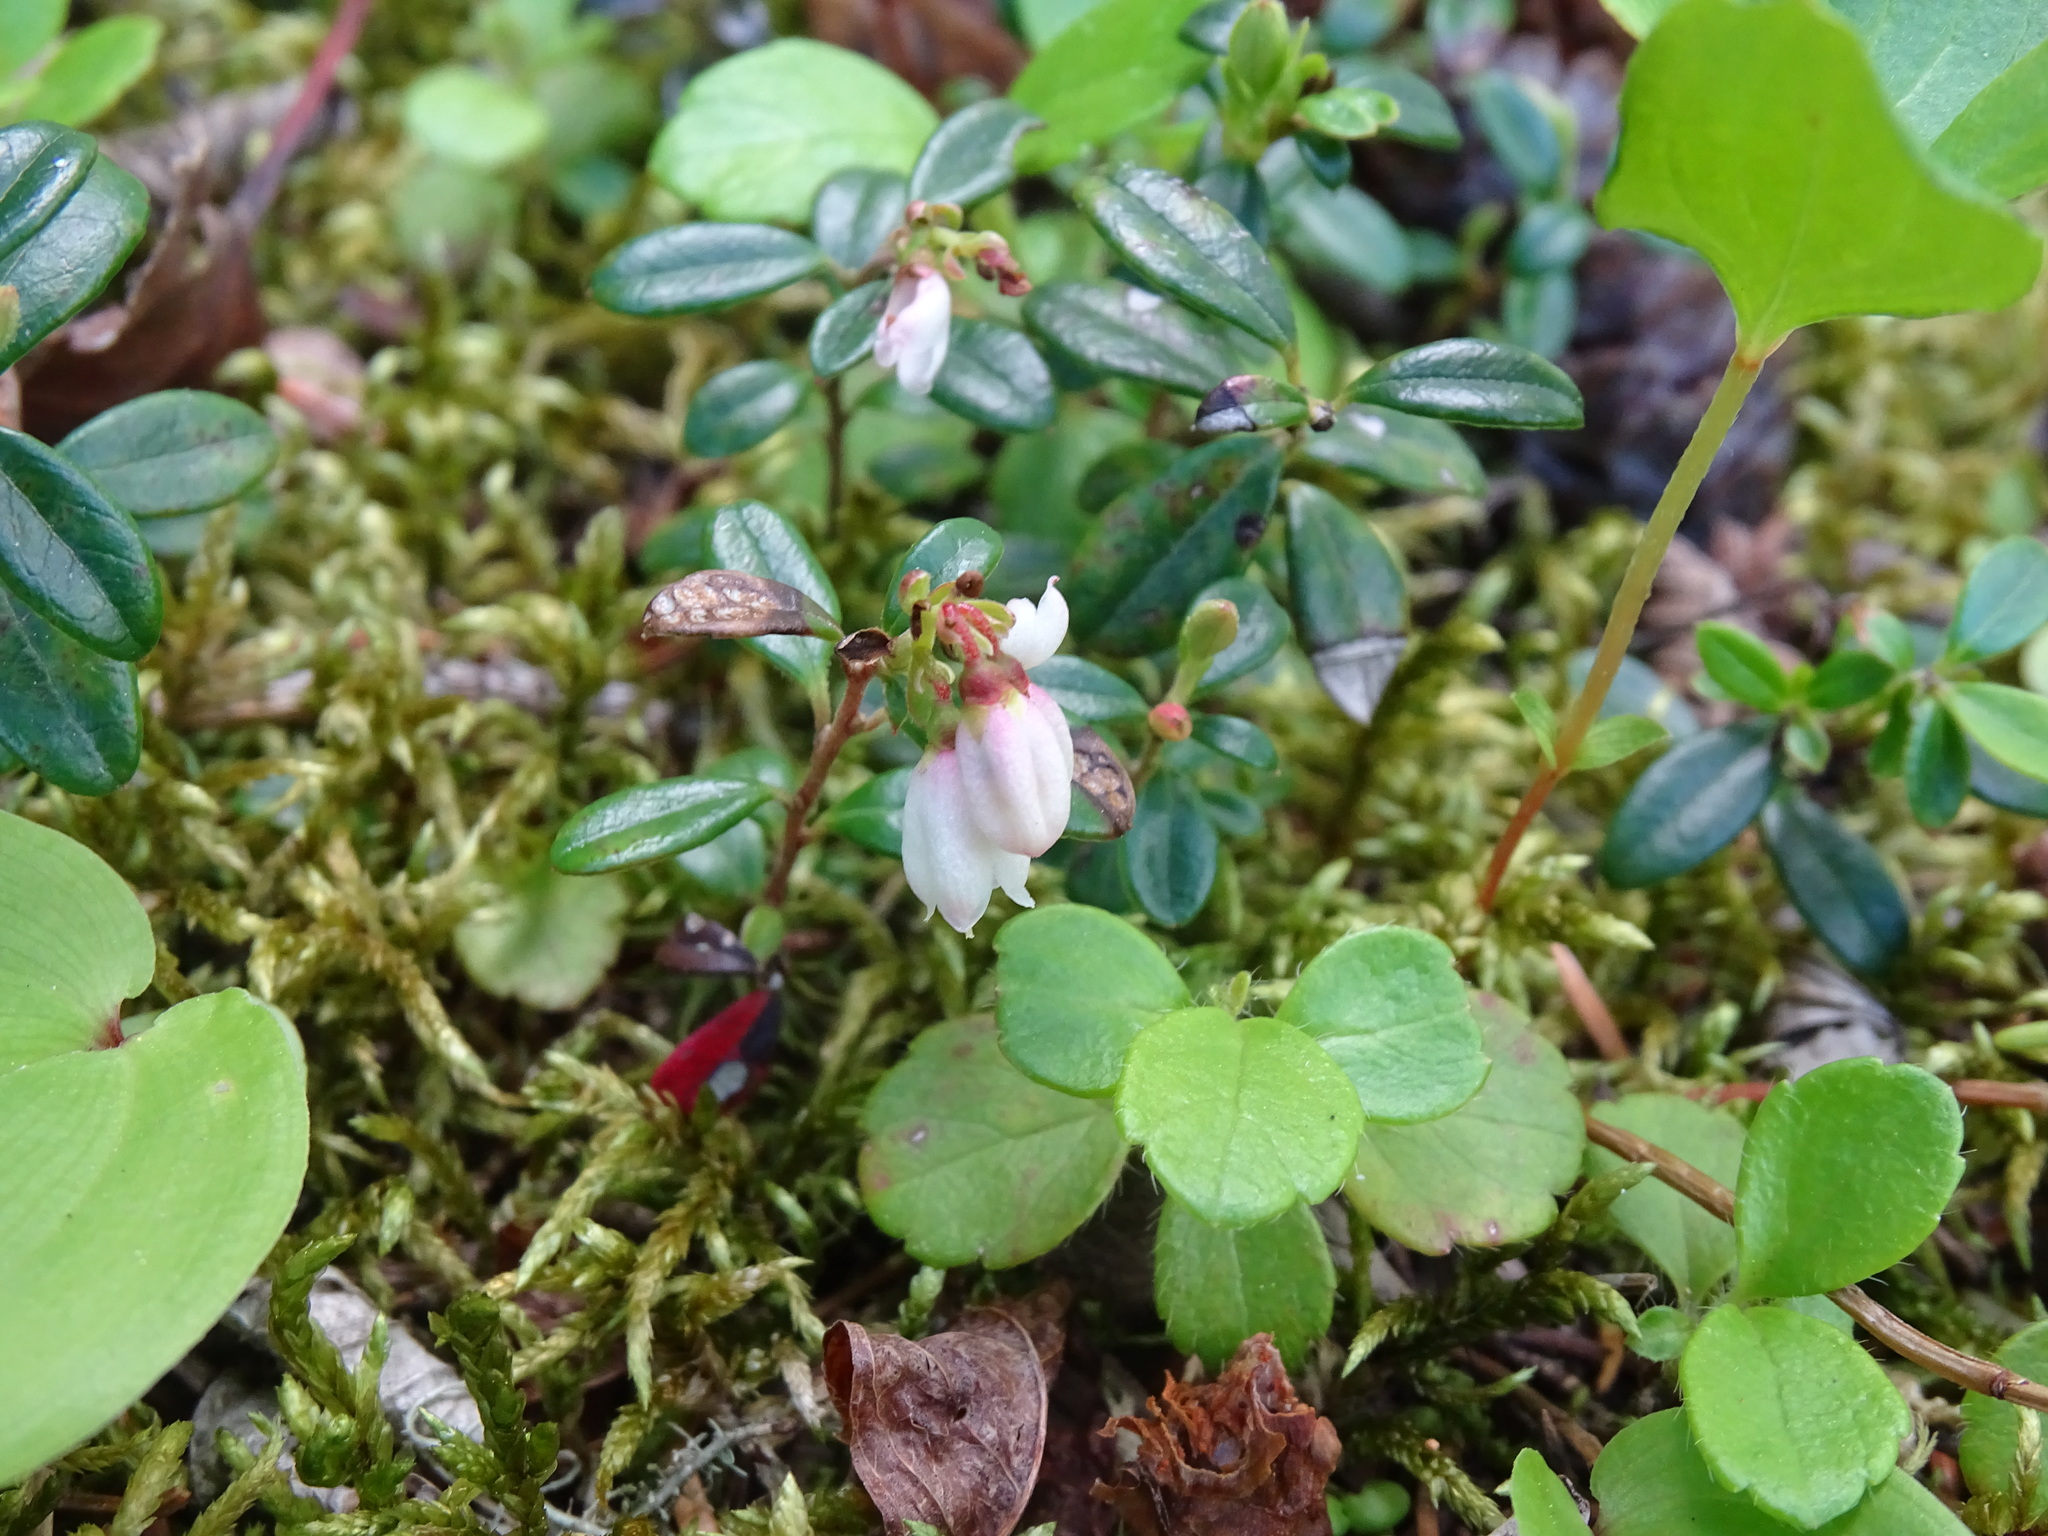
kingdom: Plantae
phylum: Tracheophyta
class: Magnoliopsida
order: Ericales
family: Ericaceae
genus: Vaccinium
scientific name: Vaccinium vitis-idaea
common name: Cowberry
